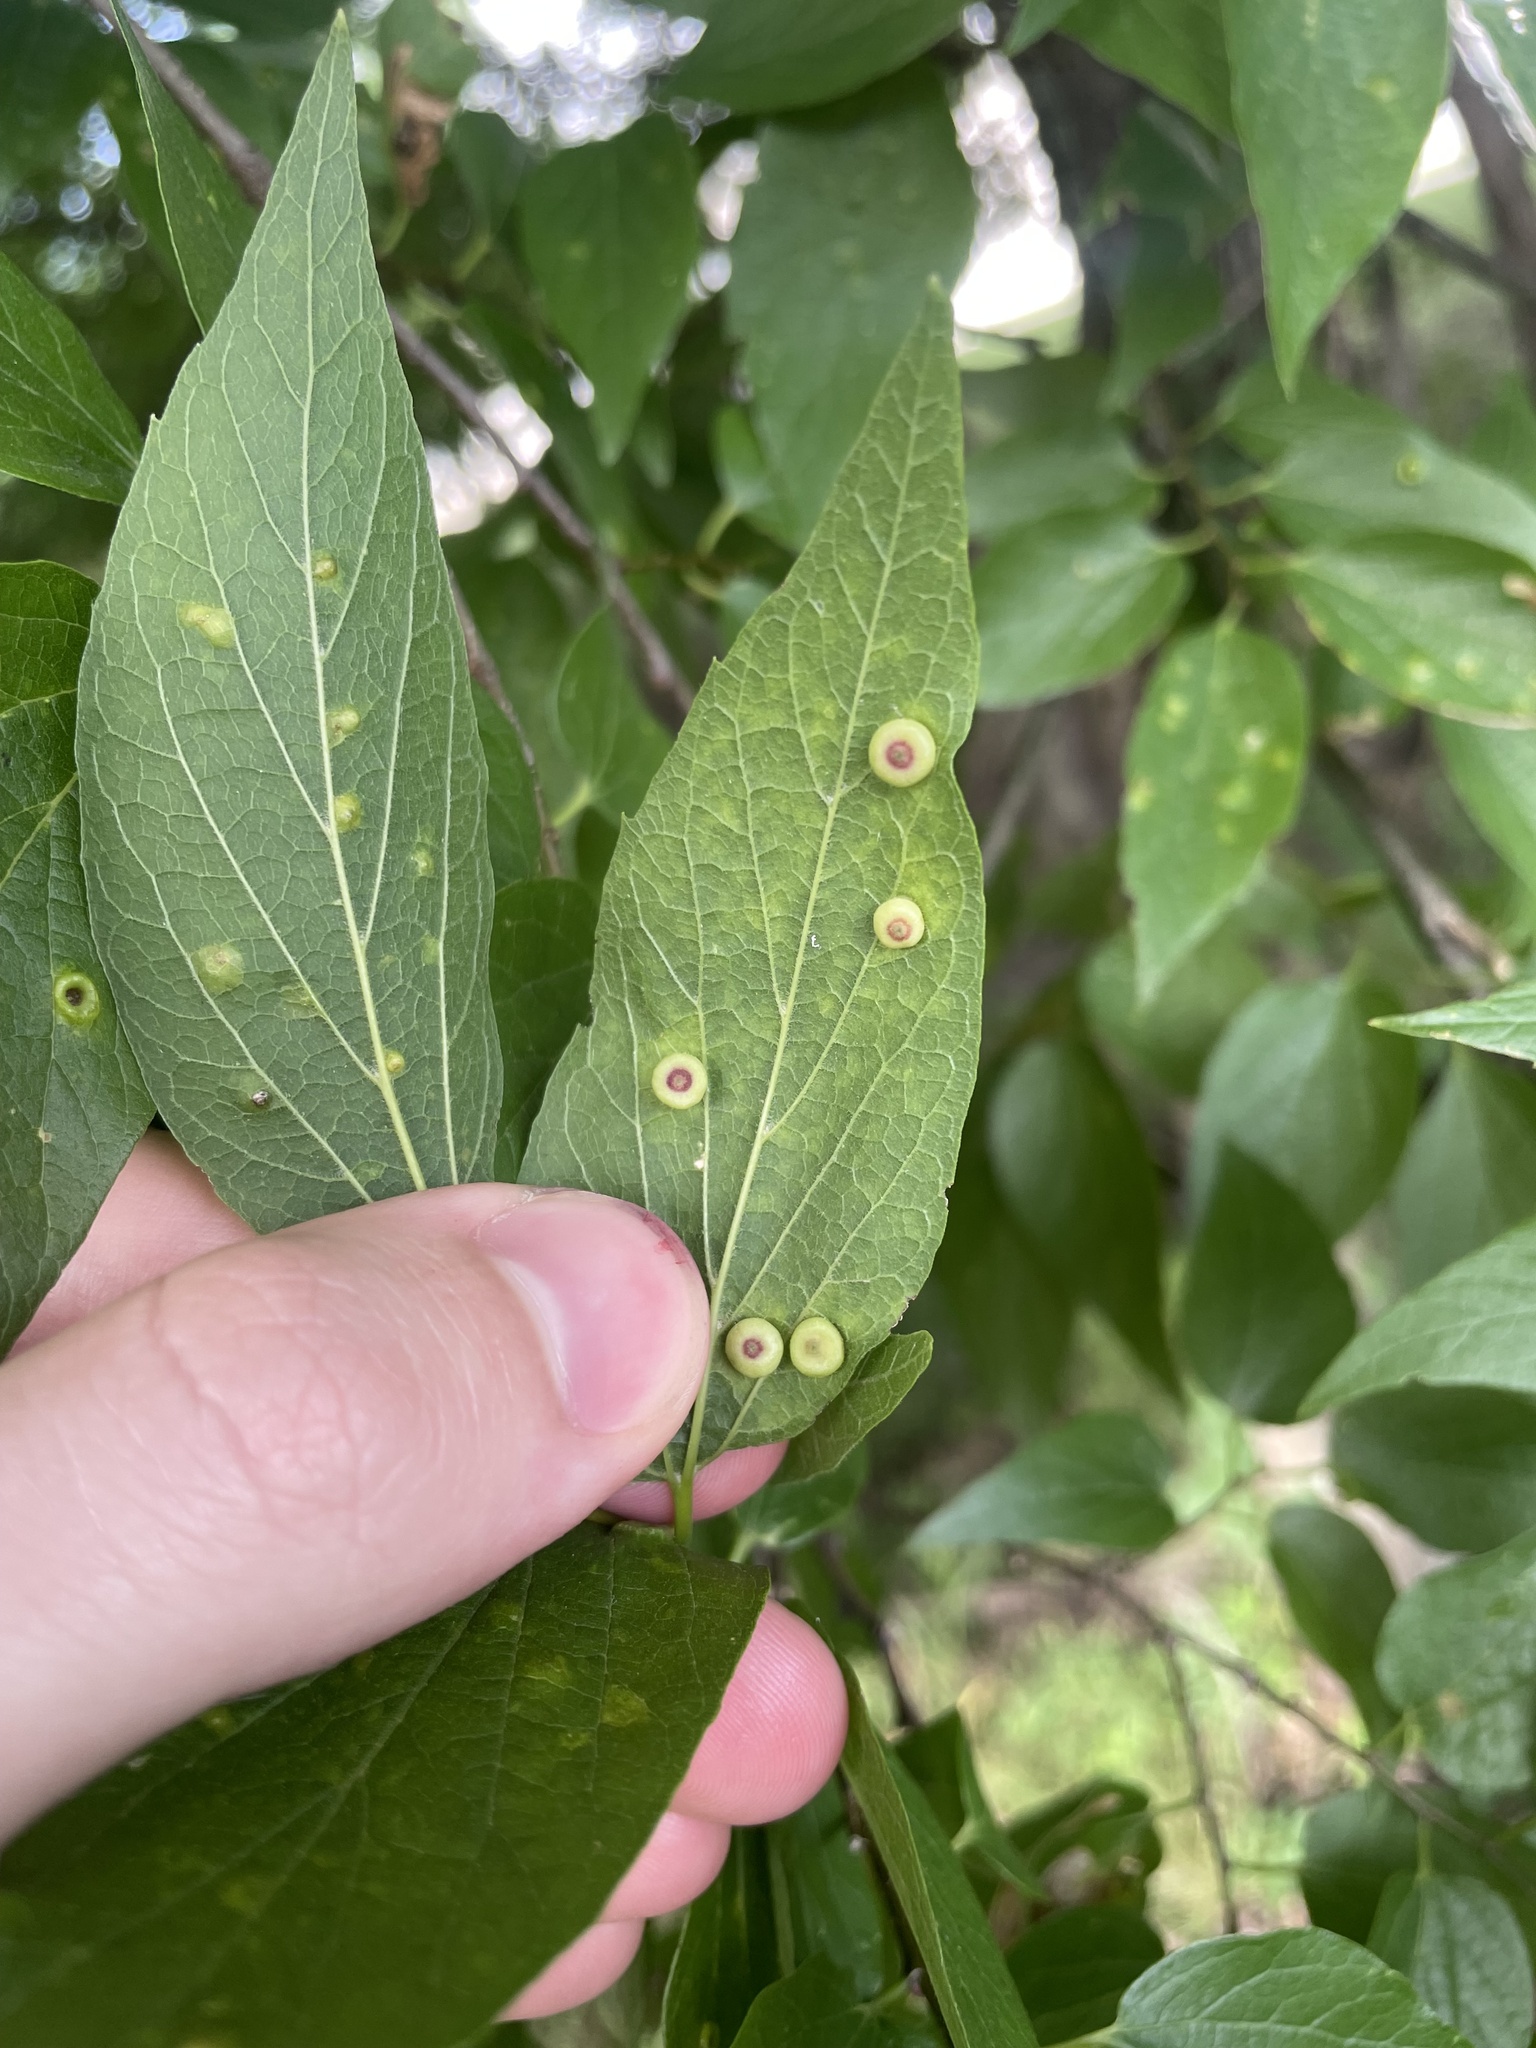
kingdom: Animalia
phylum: Arthropoda
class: Insecta
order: Hemiptera
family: Aphalaridae
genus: Pachypsylla
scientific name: Pachypsylla celtidismamma
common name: Hackberry nipplegall psyllid
